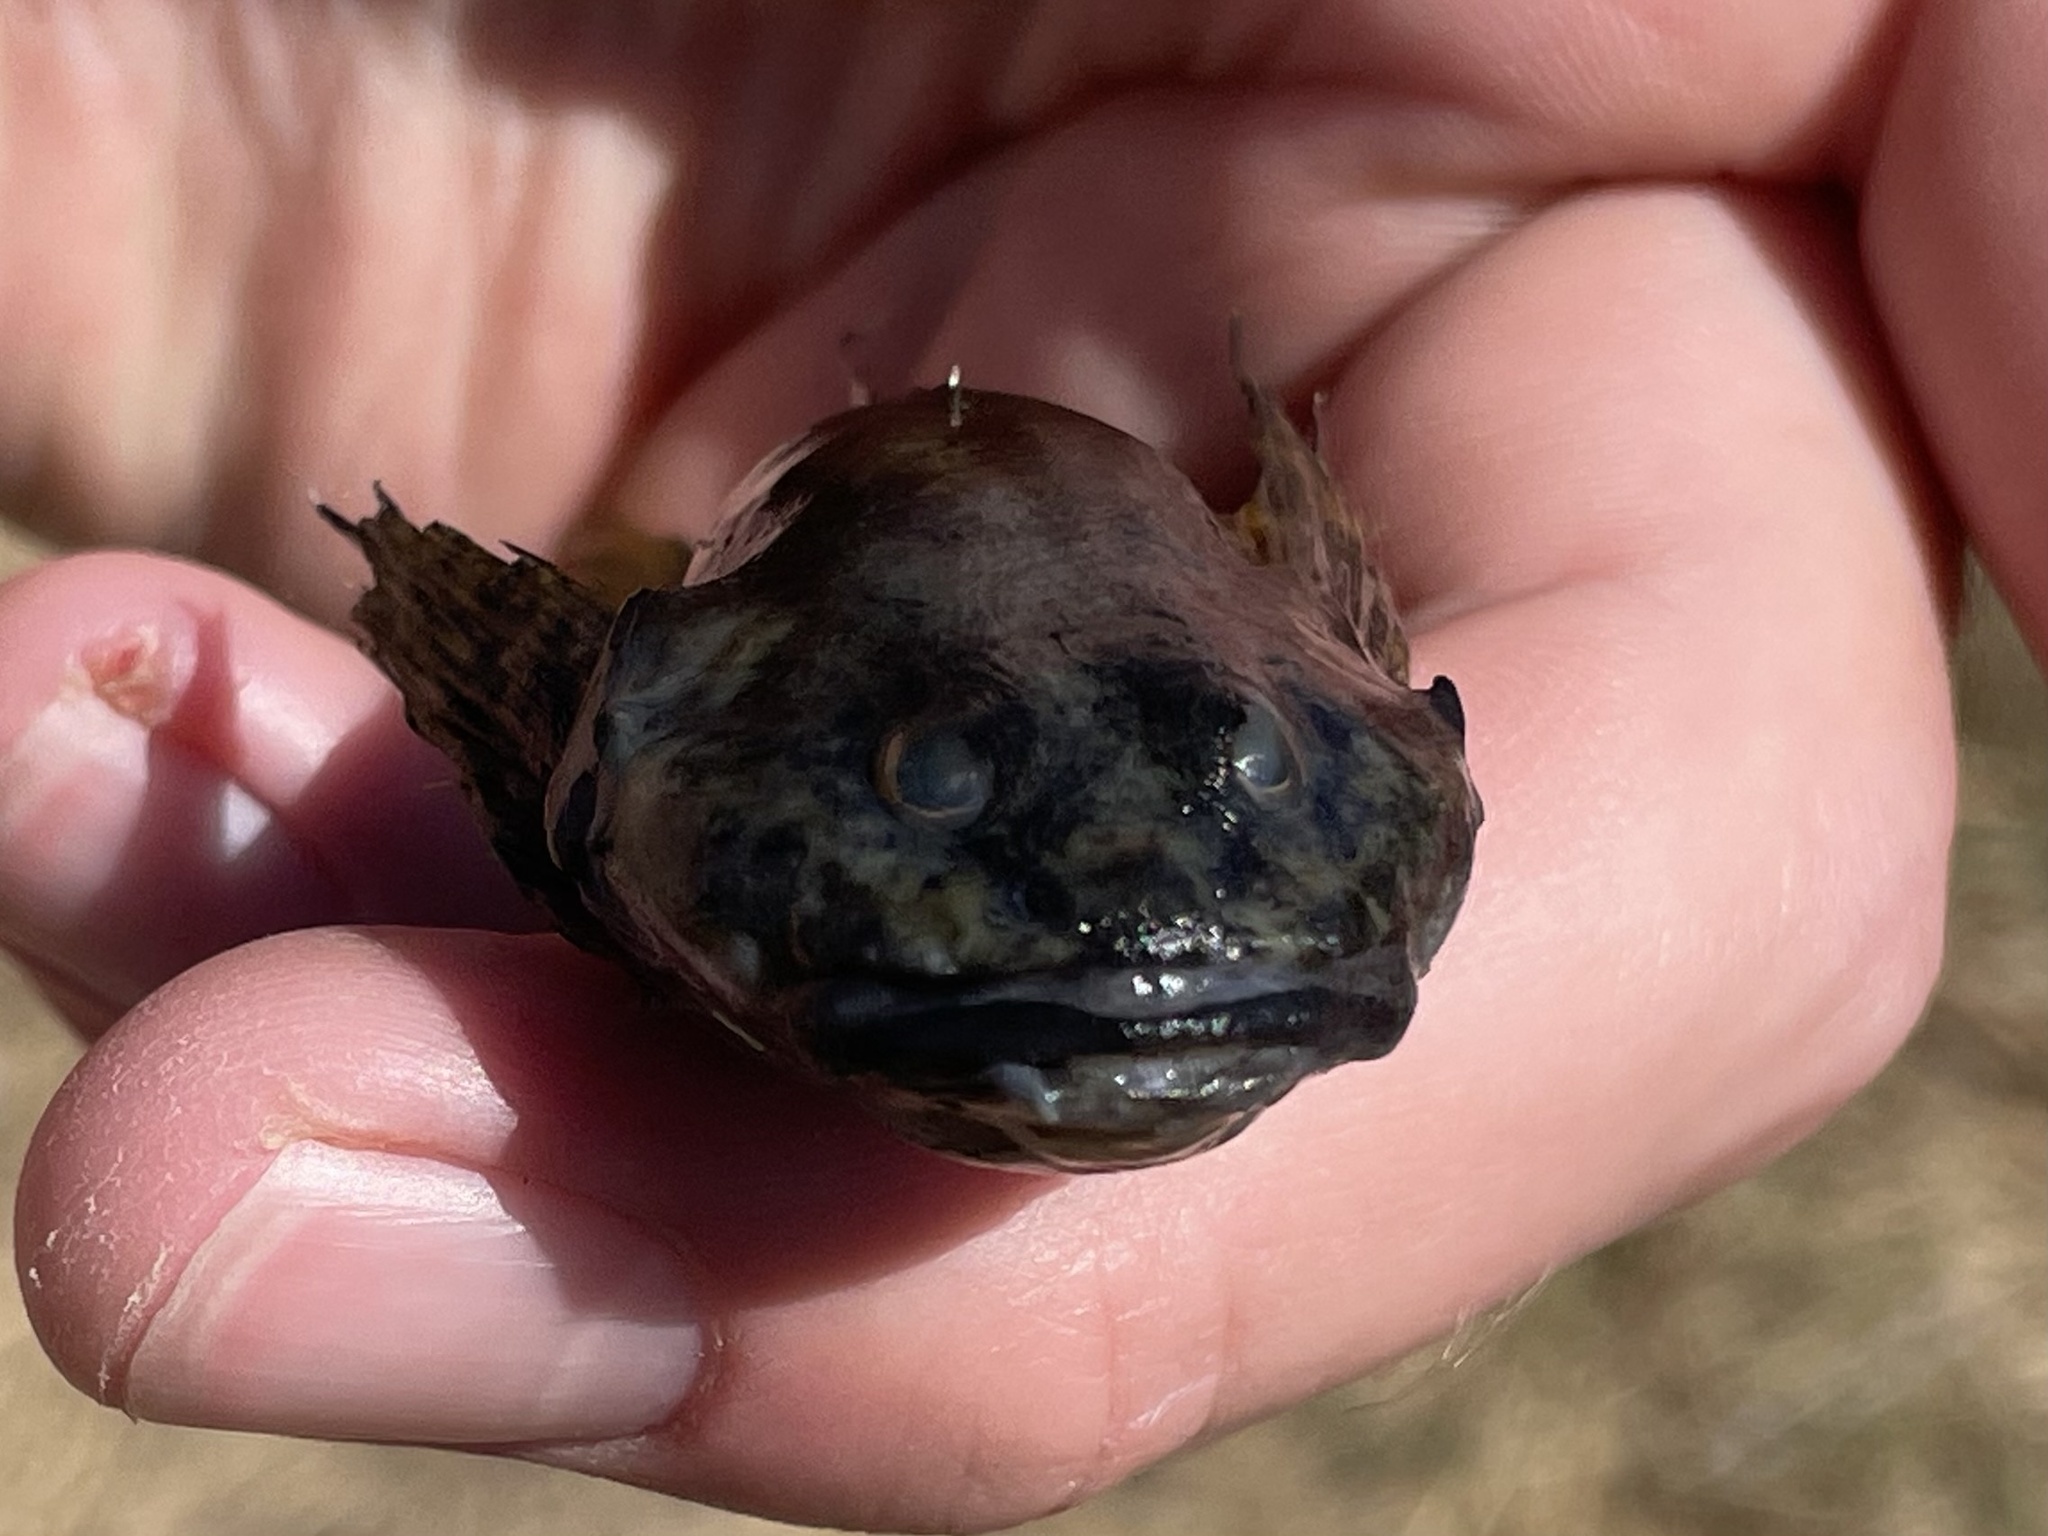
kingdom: Animalia
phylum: Chordata
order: Scorpaeniformes
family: Cottidae
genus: Cottus
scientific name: Cottus bairdii
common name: Mottled sculpin
